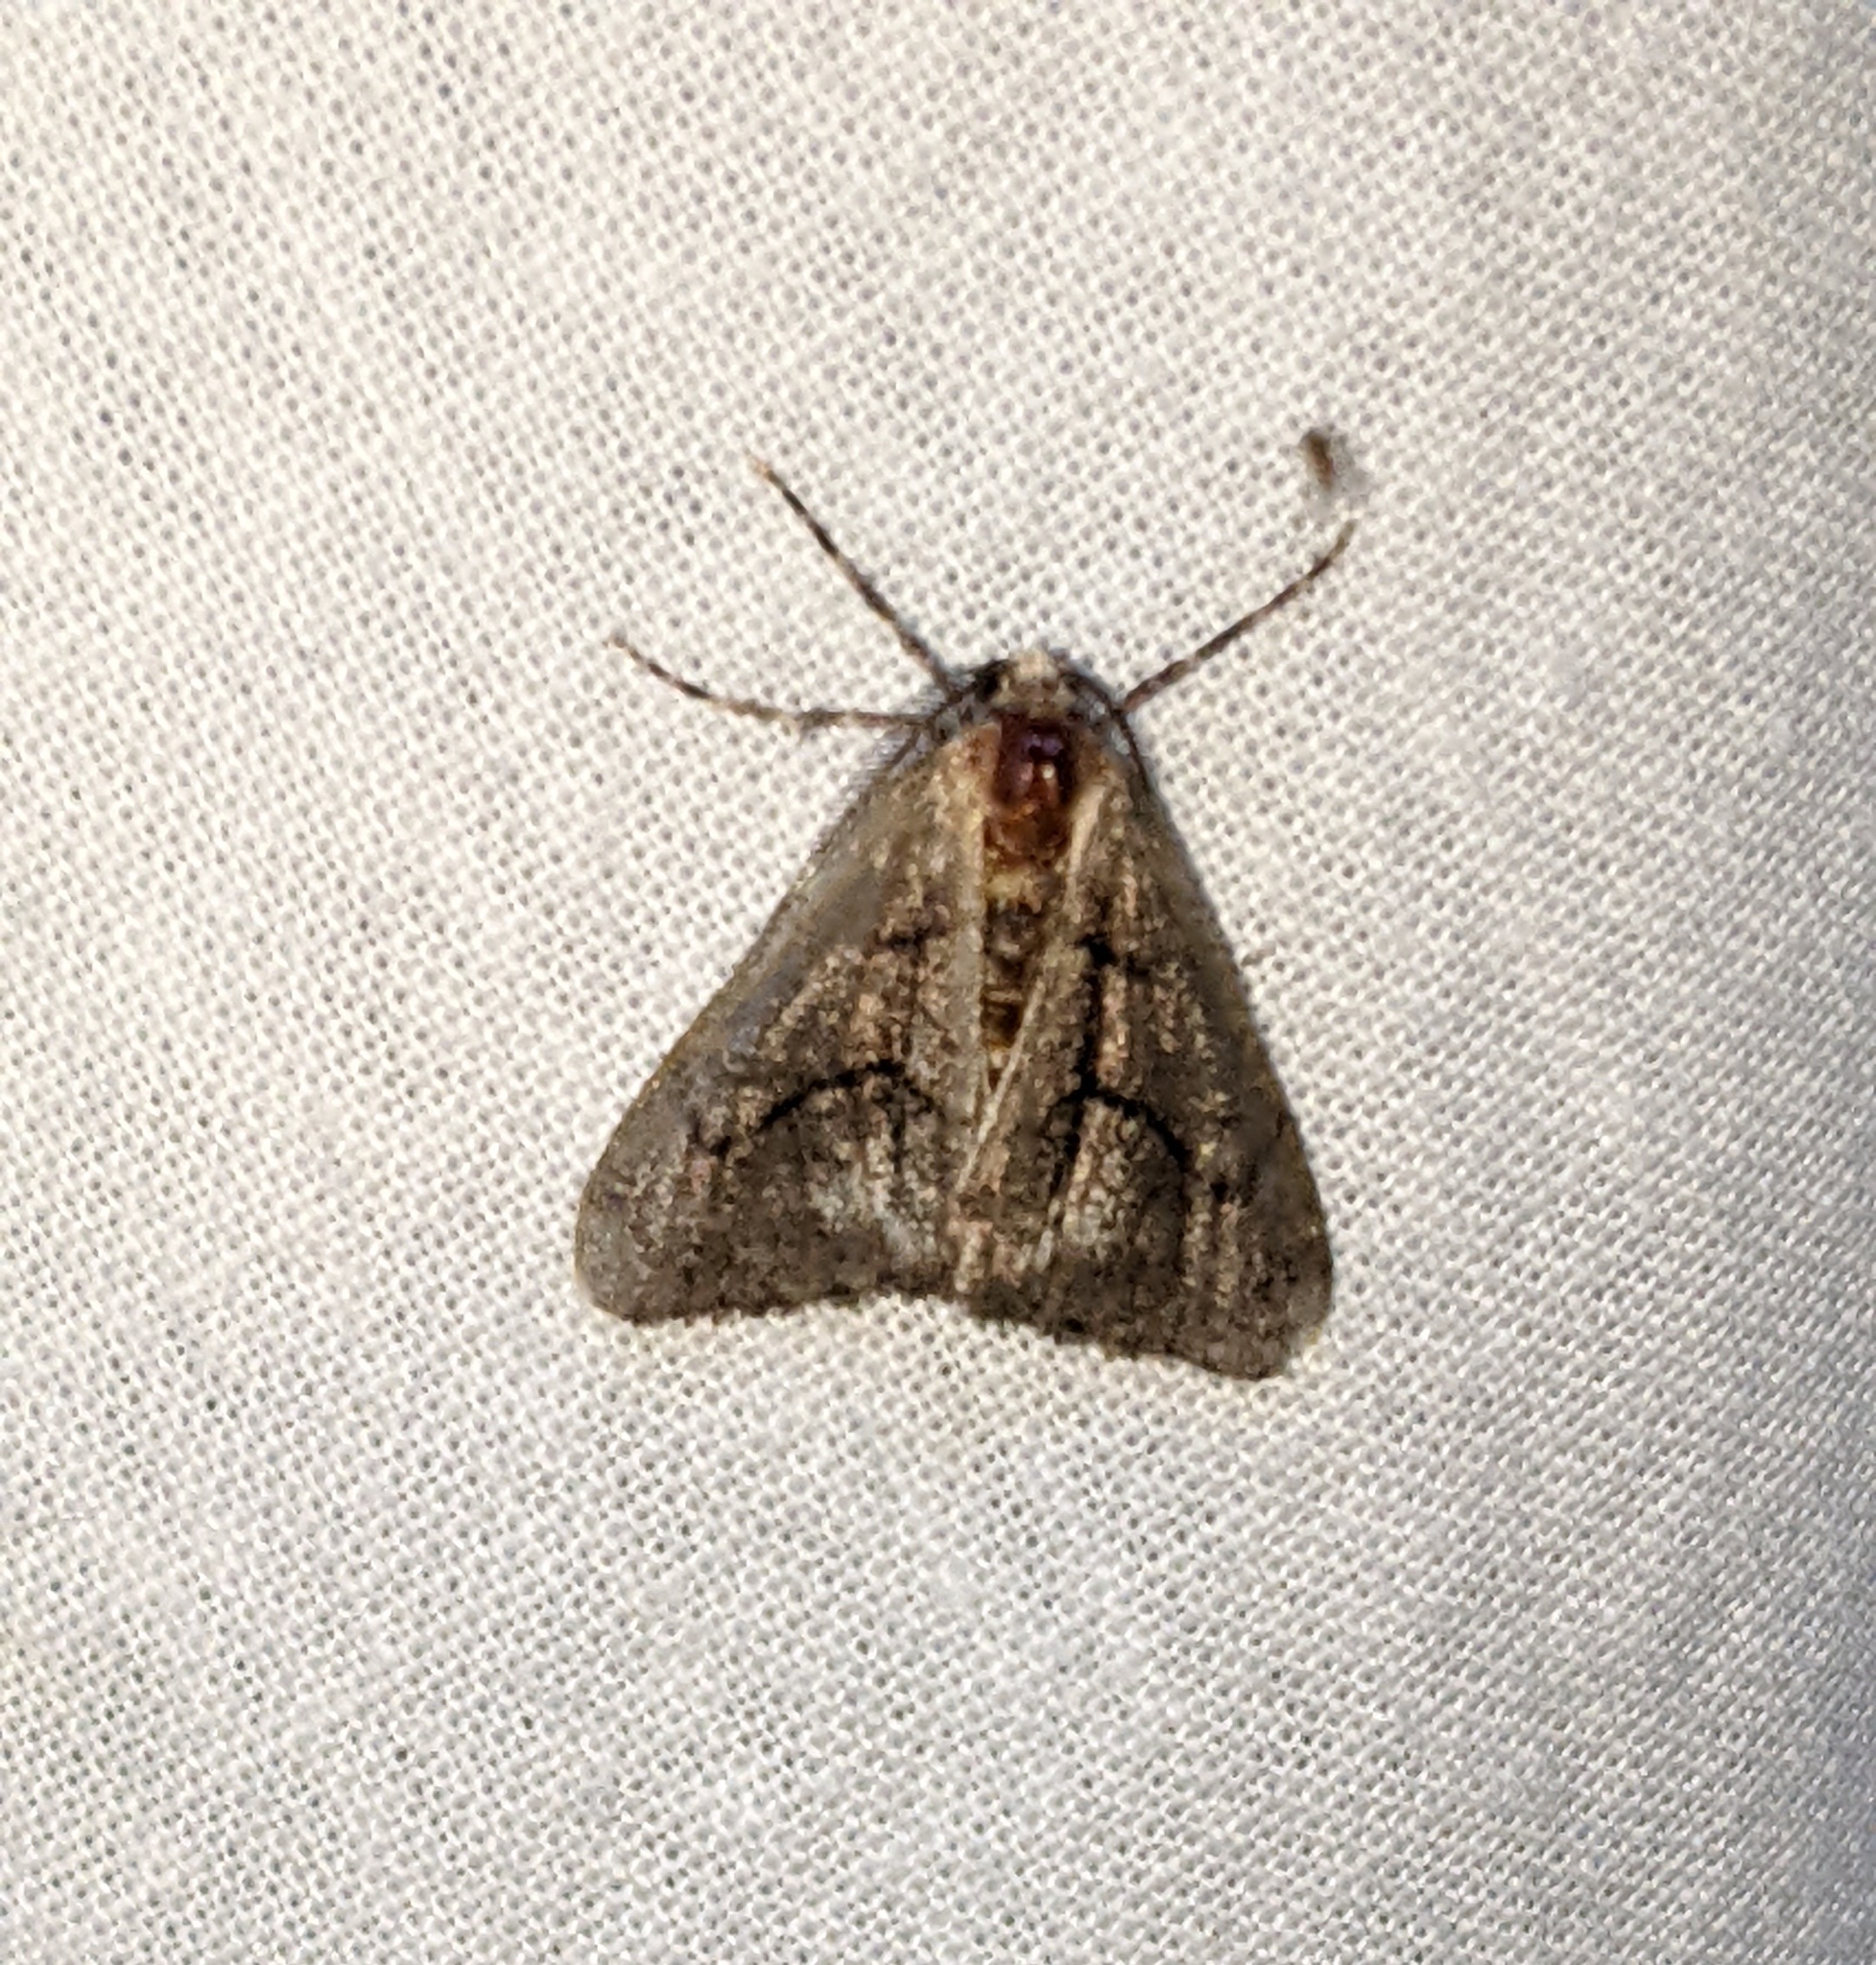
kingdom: Animalia
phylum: Arthropoda
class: Insecta
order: Lepidoptera
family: Geometridae
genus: Gabriola
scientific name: Gabriola dyari
